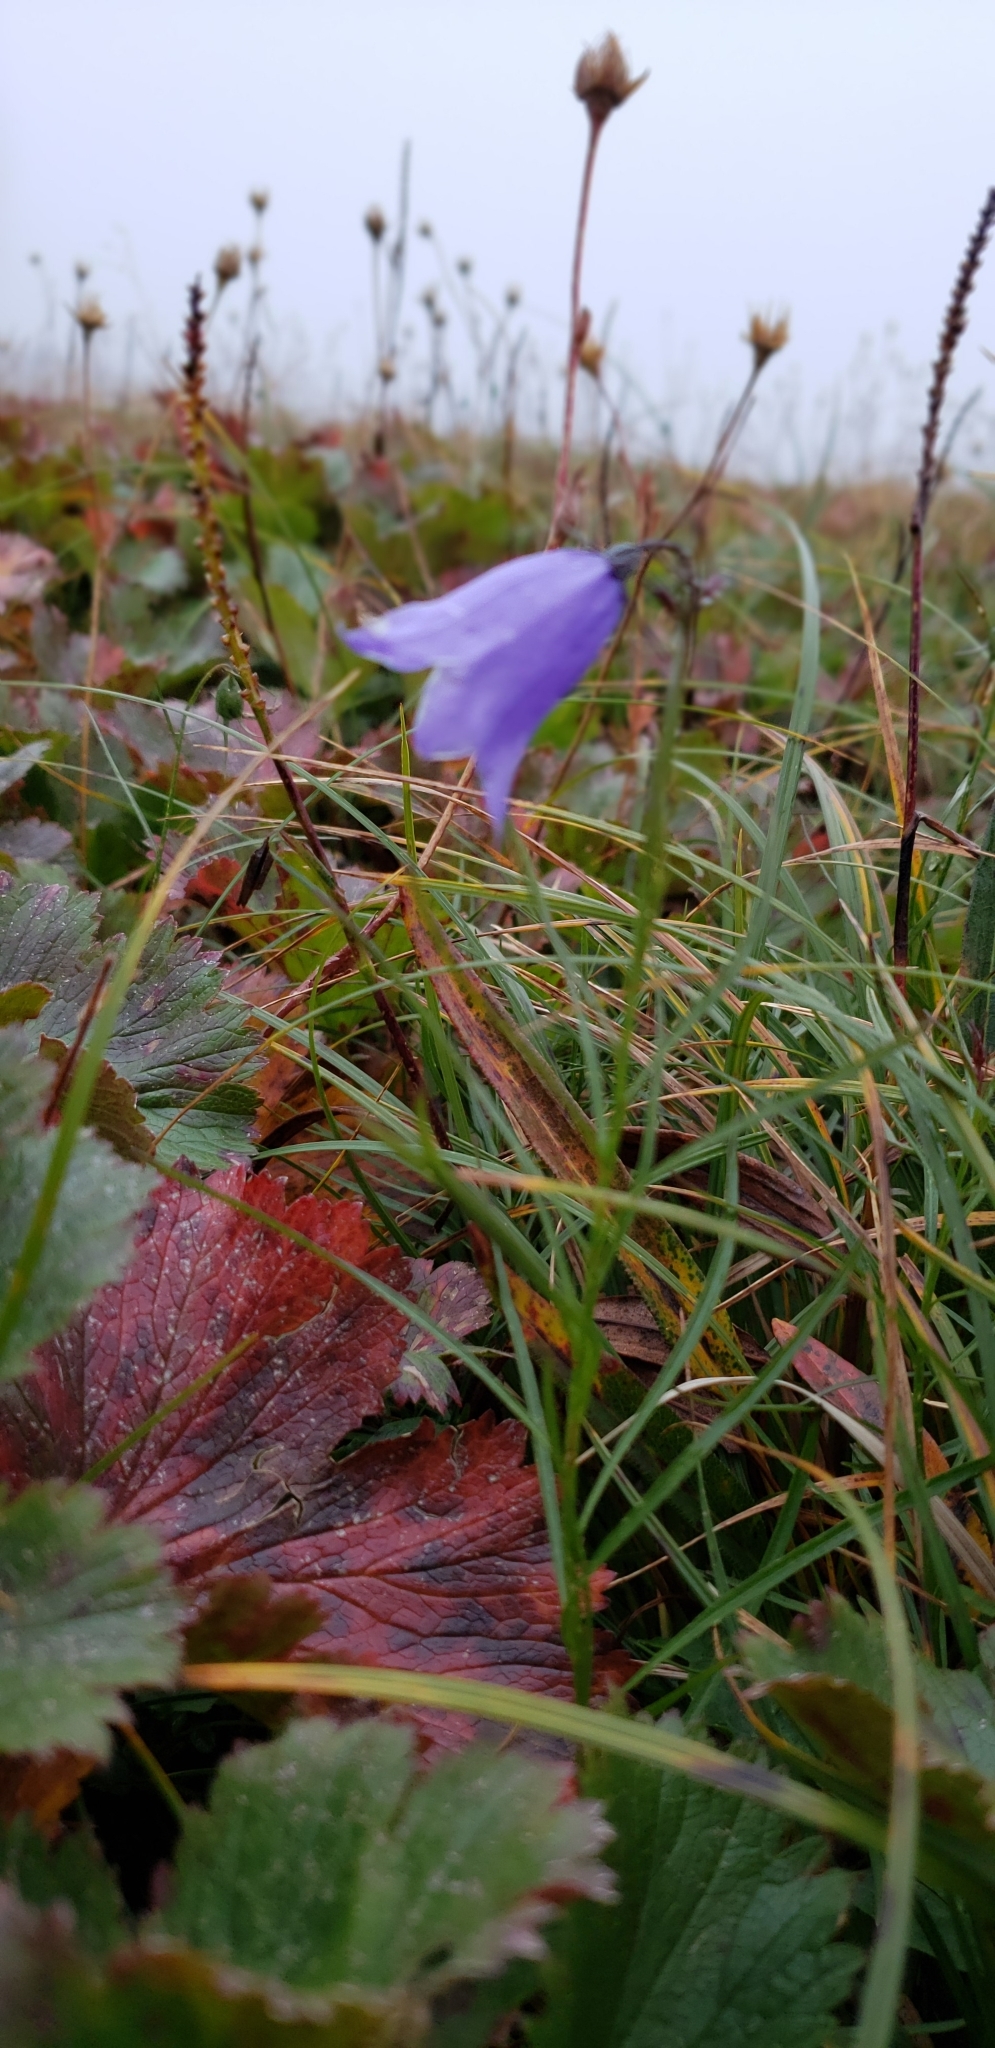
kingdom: Plantae
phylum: Tracheophyta
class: Magnoliopsida
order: Asterales
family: Campanulaceae
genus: Campanula
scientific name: Campanula intercedens
